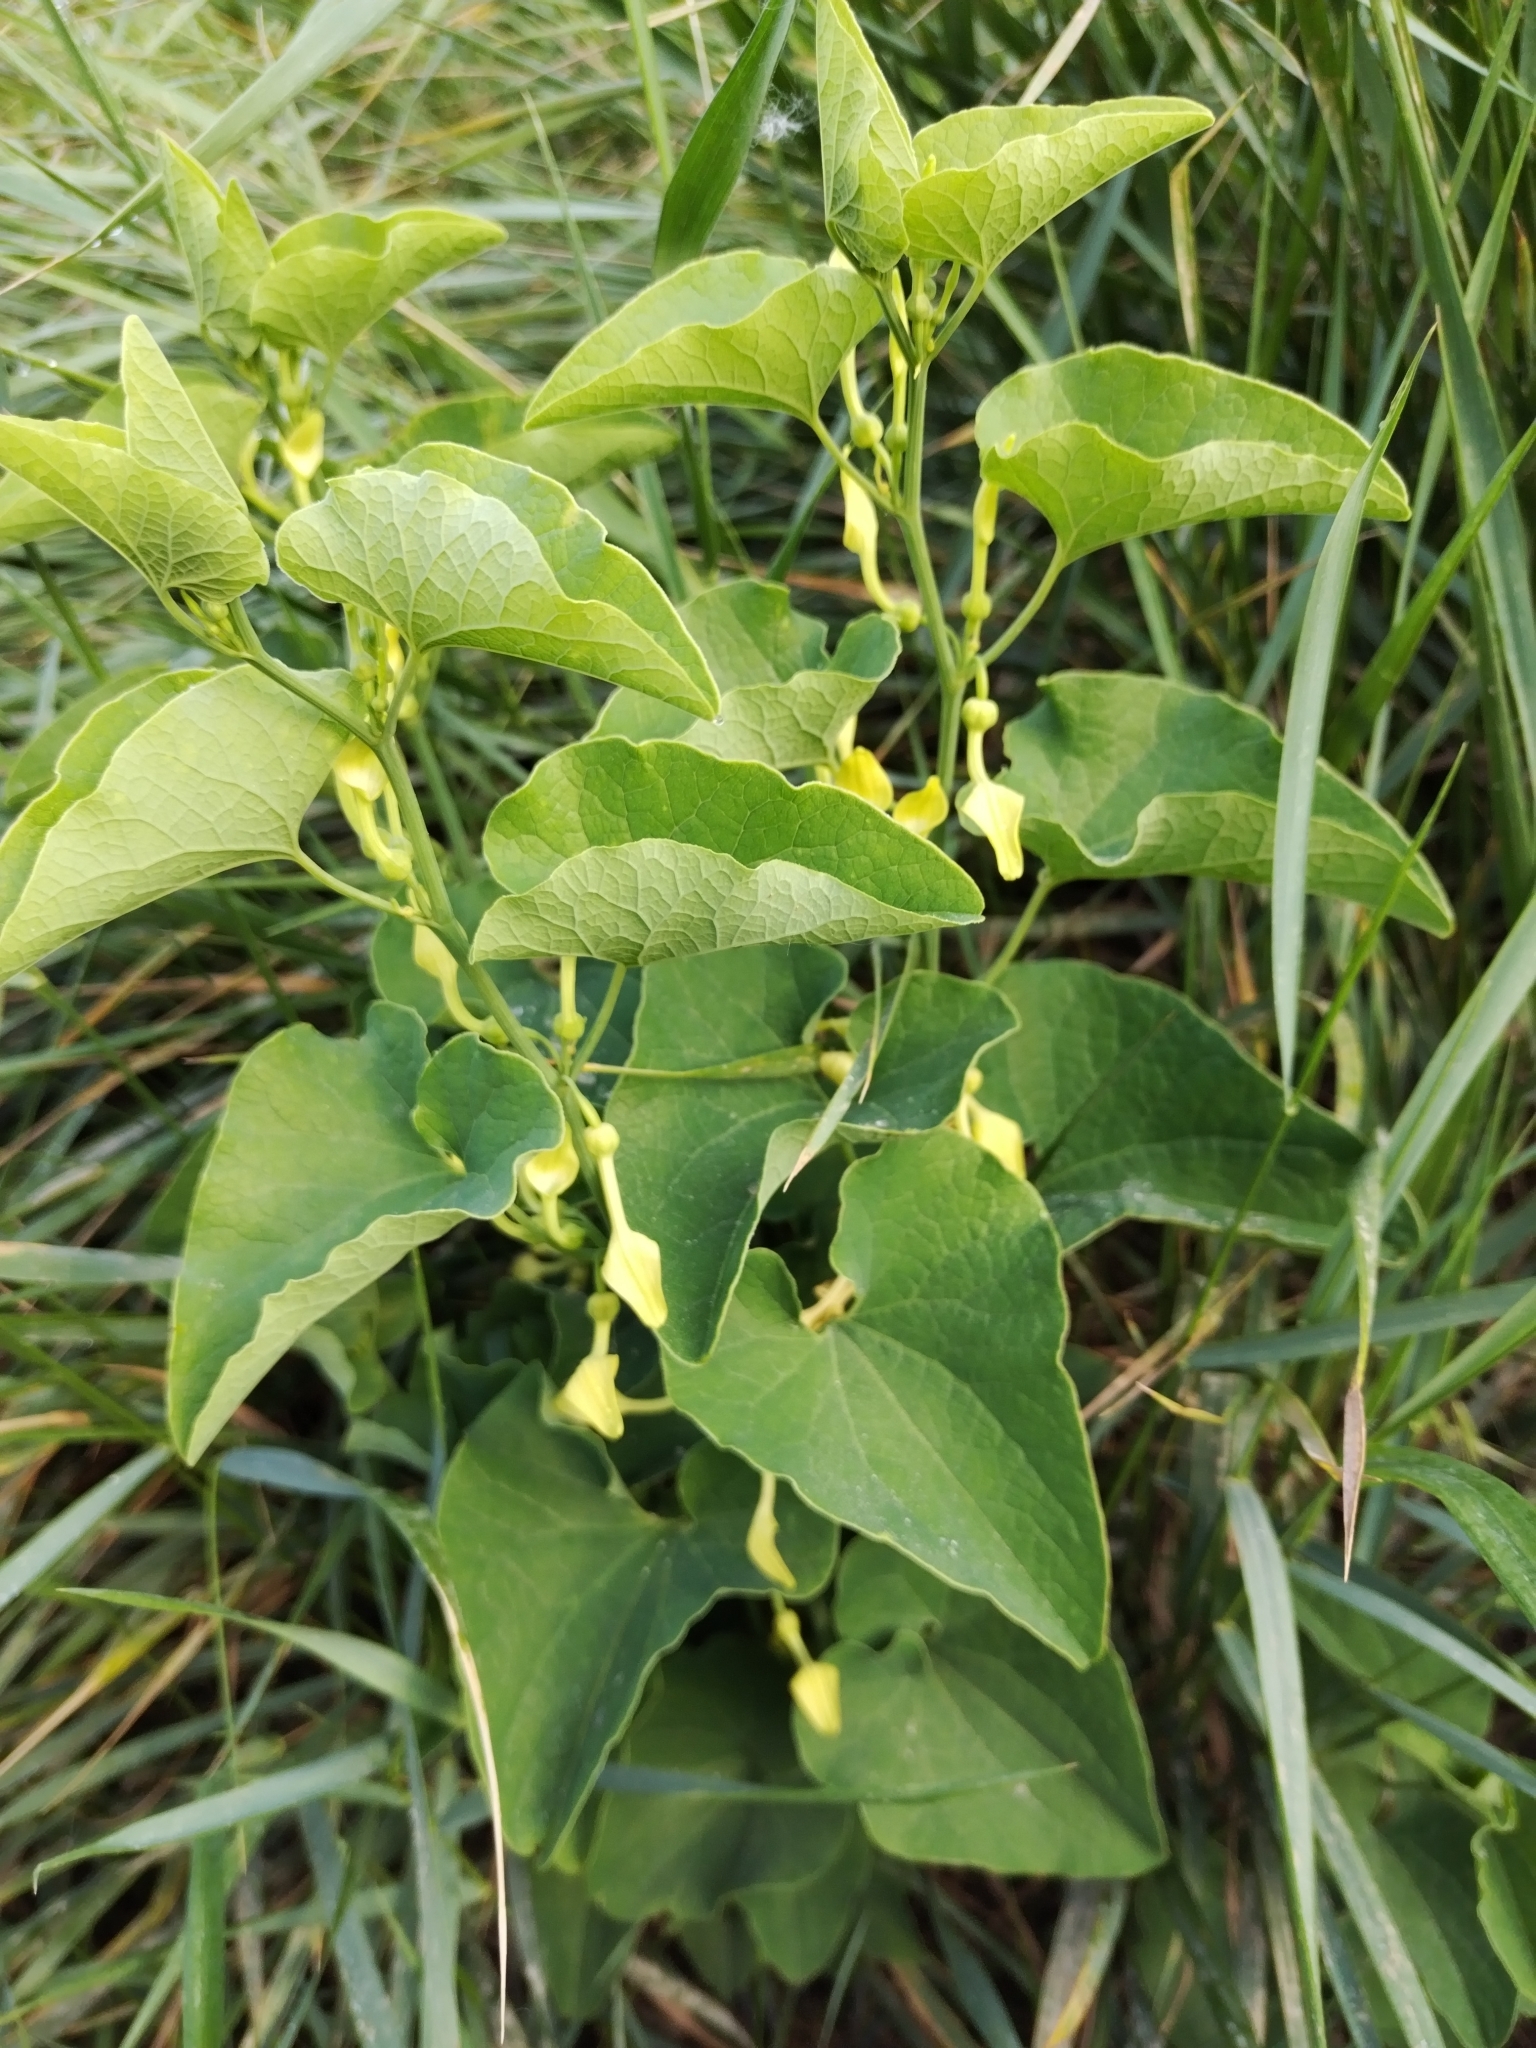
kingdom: Plantae
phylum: Tracheophyta
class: Magnoliopsida
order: Piperales
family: Aristolochiaceae
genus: Aristolochia
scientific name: Aristolochia clematitis
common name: Birthwort
